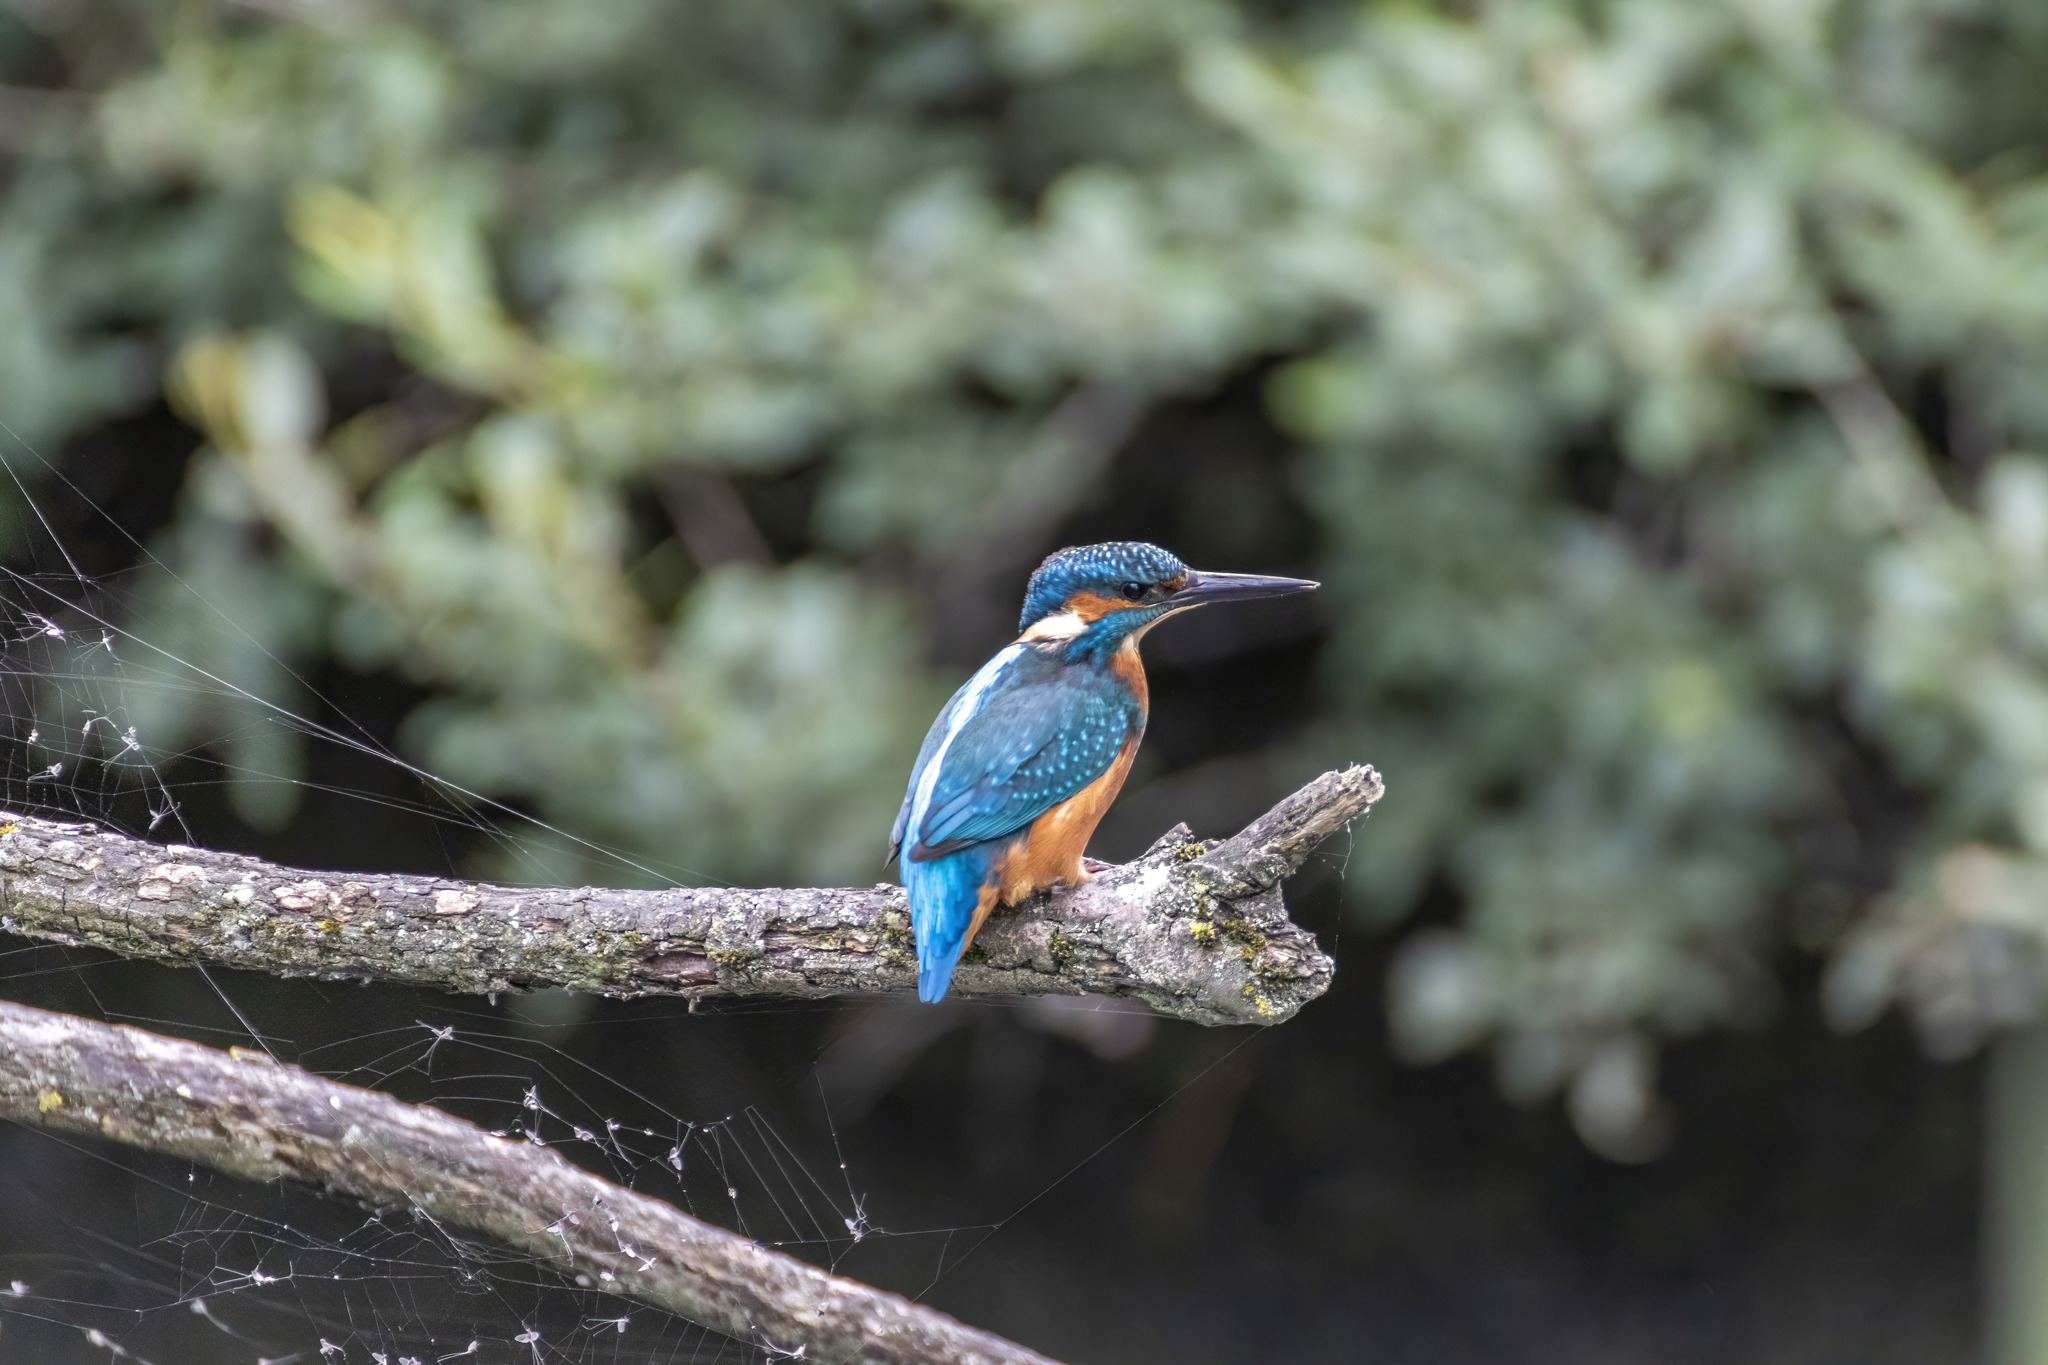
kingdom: Animalia
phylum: Chordata
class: Aves
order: Coraciiformes
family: Alcedinidae
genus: Alcedo
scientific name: Alcedo atthis
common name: Common kingfisher
